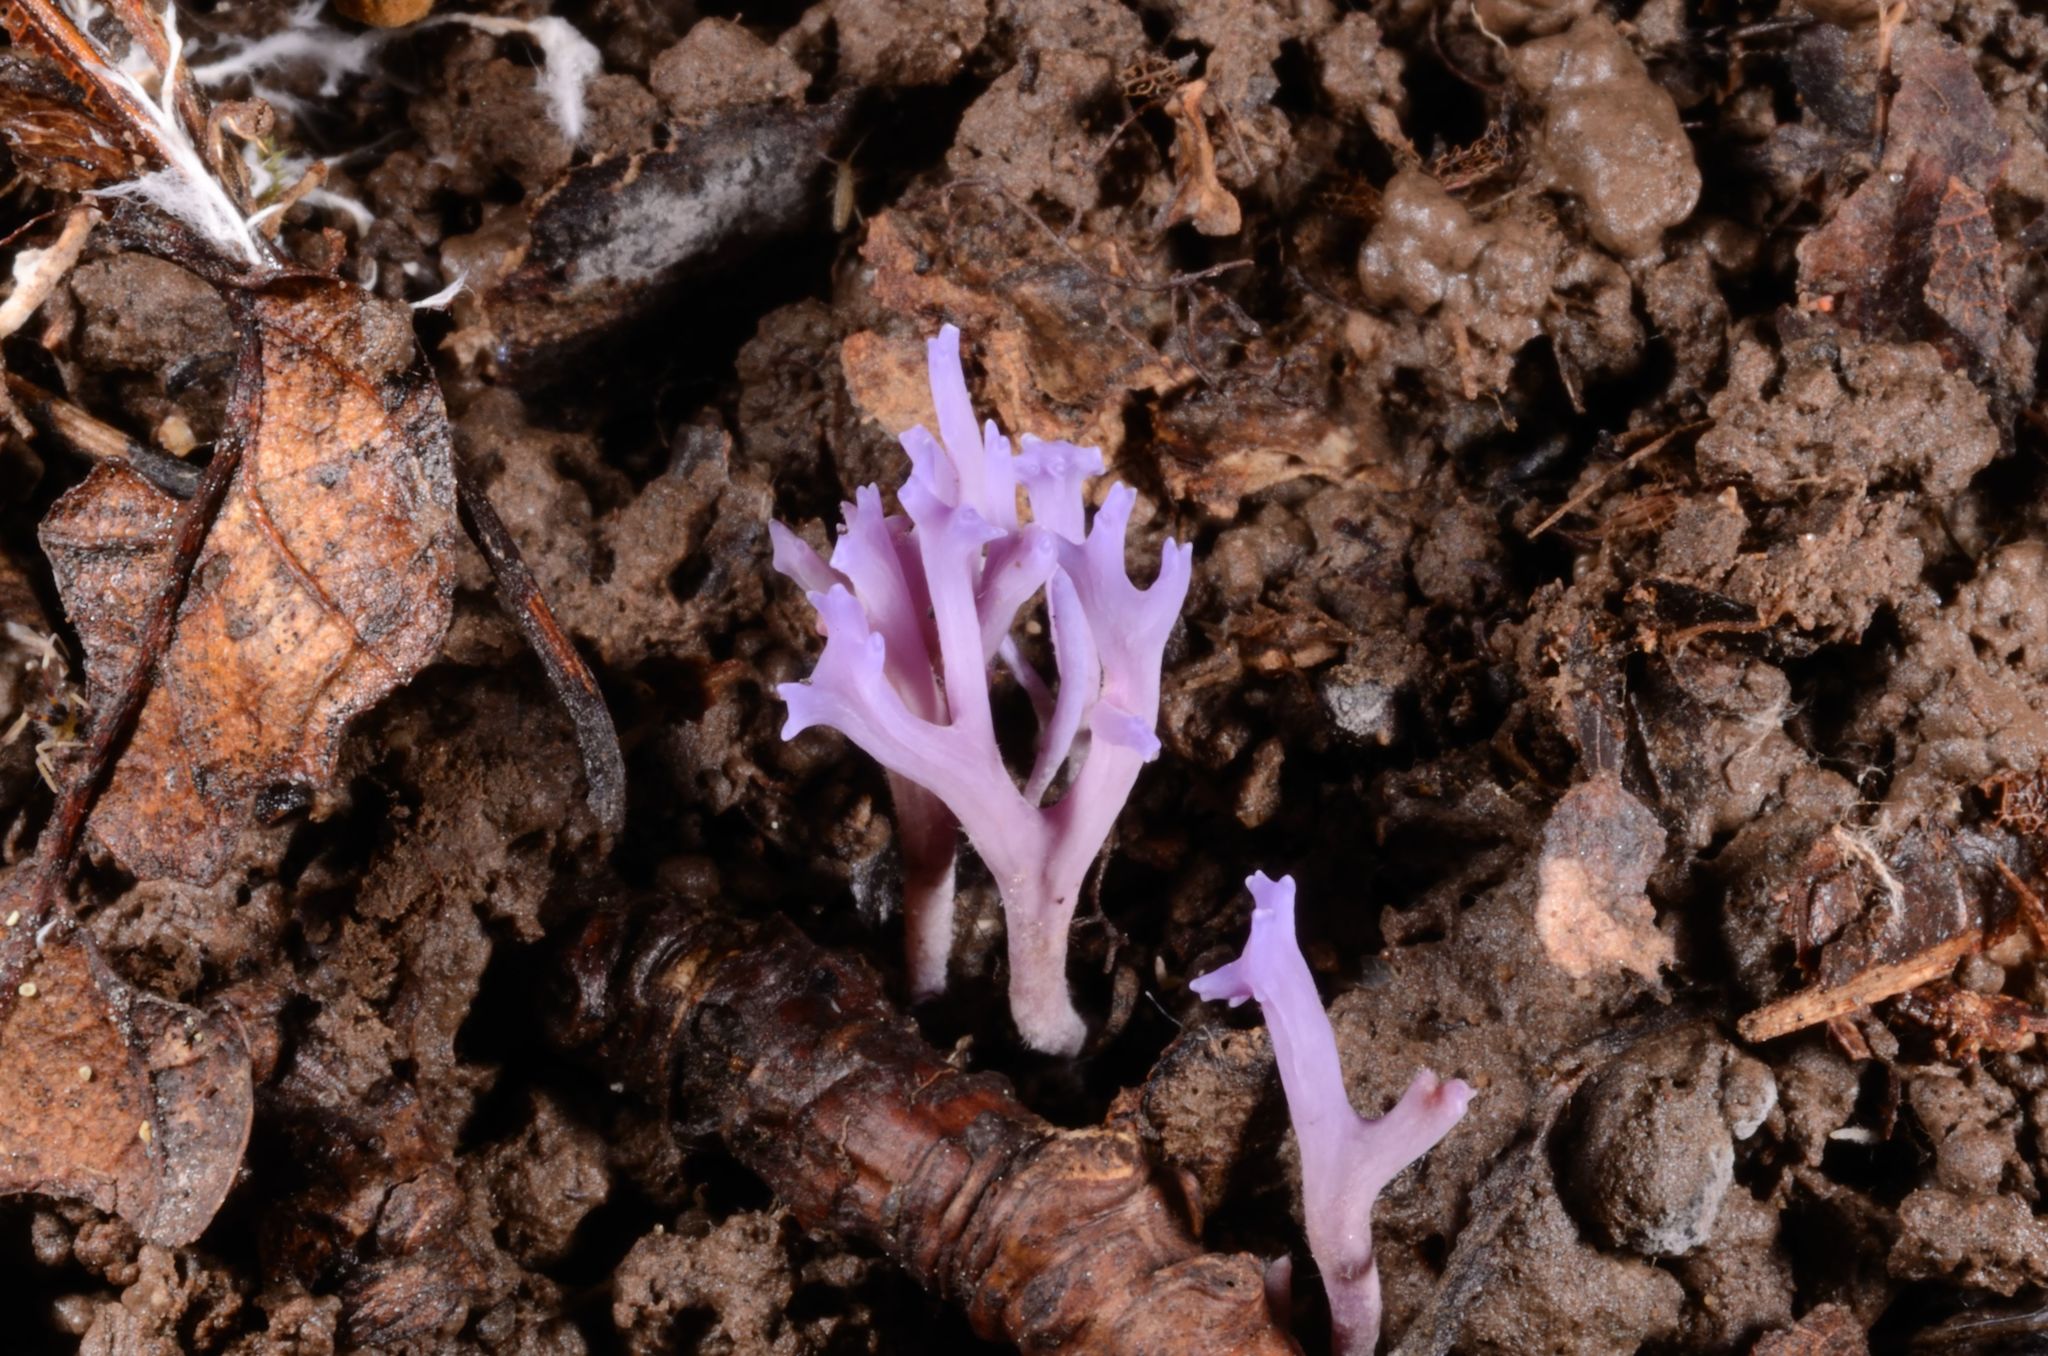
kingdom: Fungi
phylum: Basidiomycota
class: Agaricomycetes
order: Agaricales
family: Clavariaceae
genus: Ramariopsis
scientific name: Ramariopsis pulchella
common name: Lilac coral
